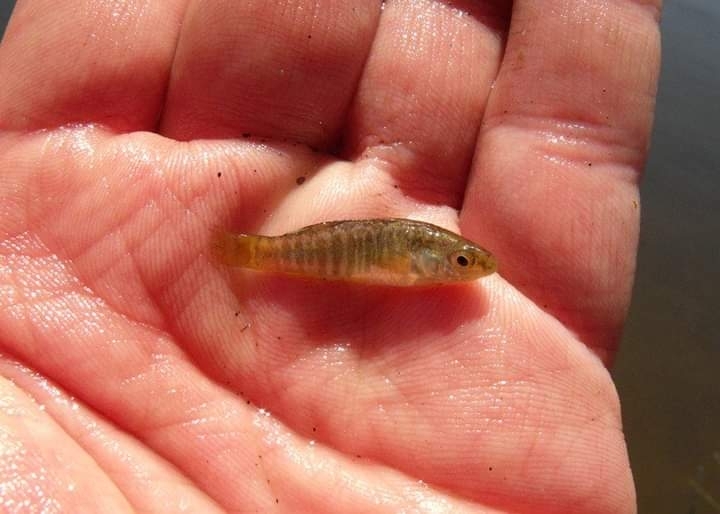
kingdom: Animalia
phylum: Chordata
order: Cyprinodontiformes
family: Cyprinodontidae
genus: Aphanius
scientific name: Aphanius fasciatus
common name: Mediterranean banded killifish
